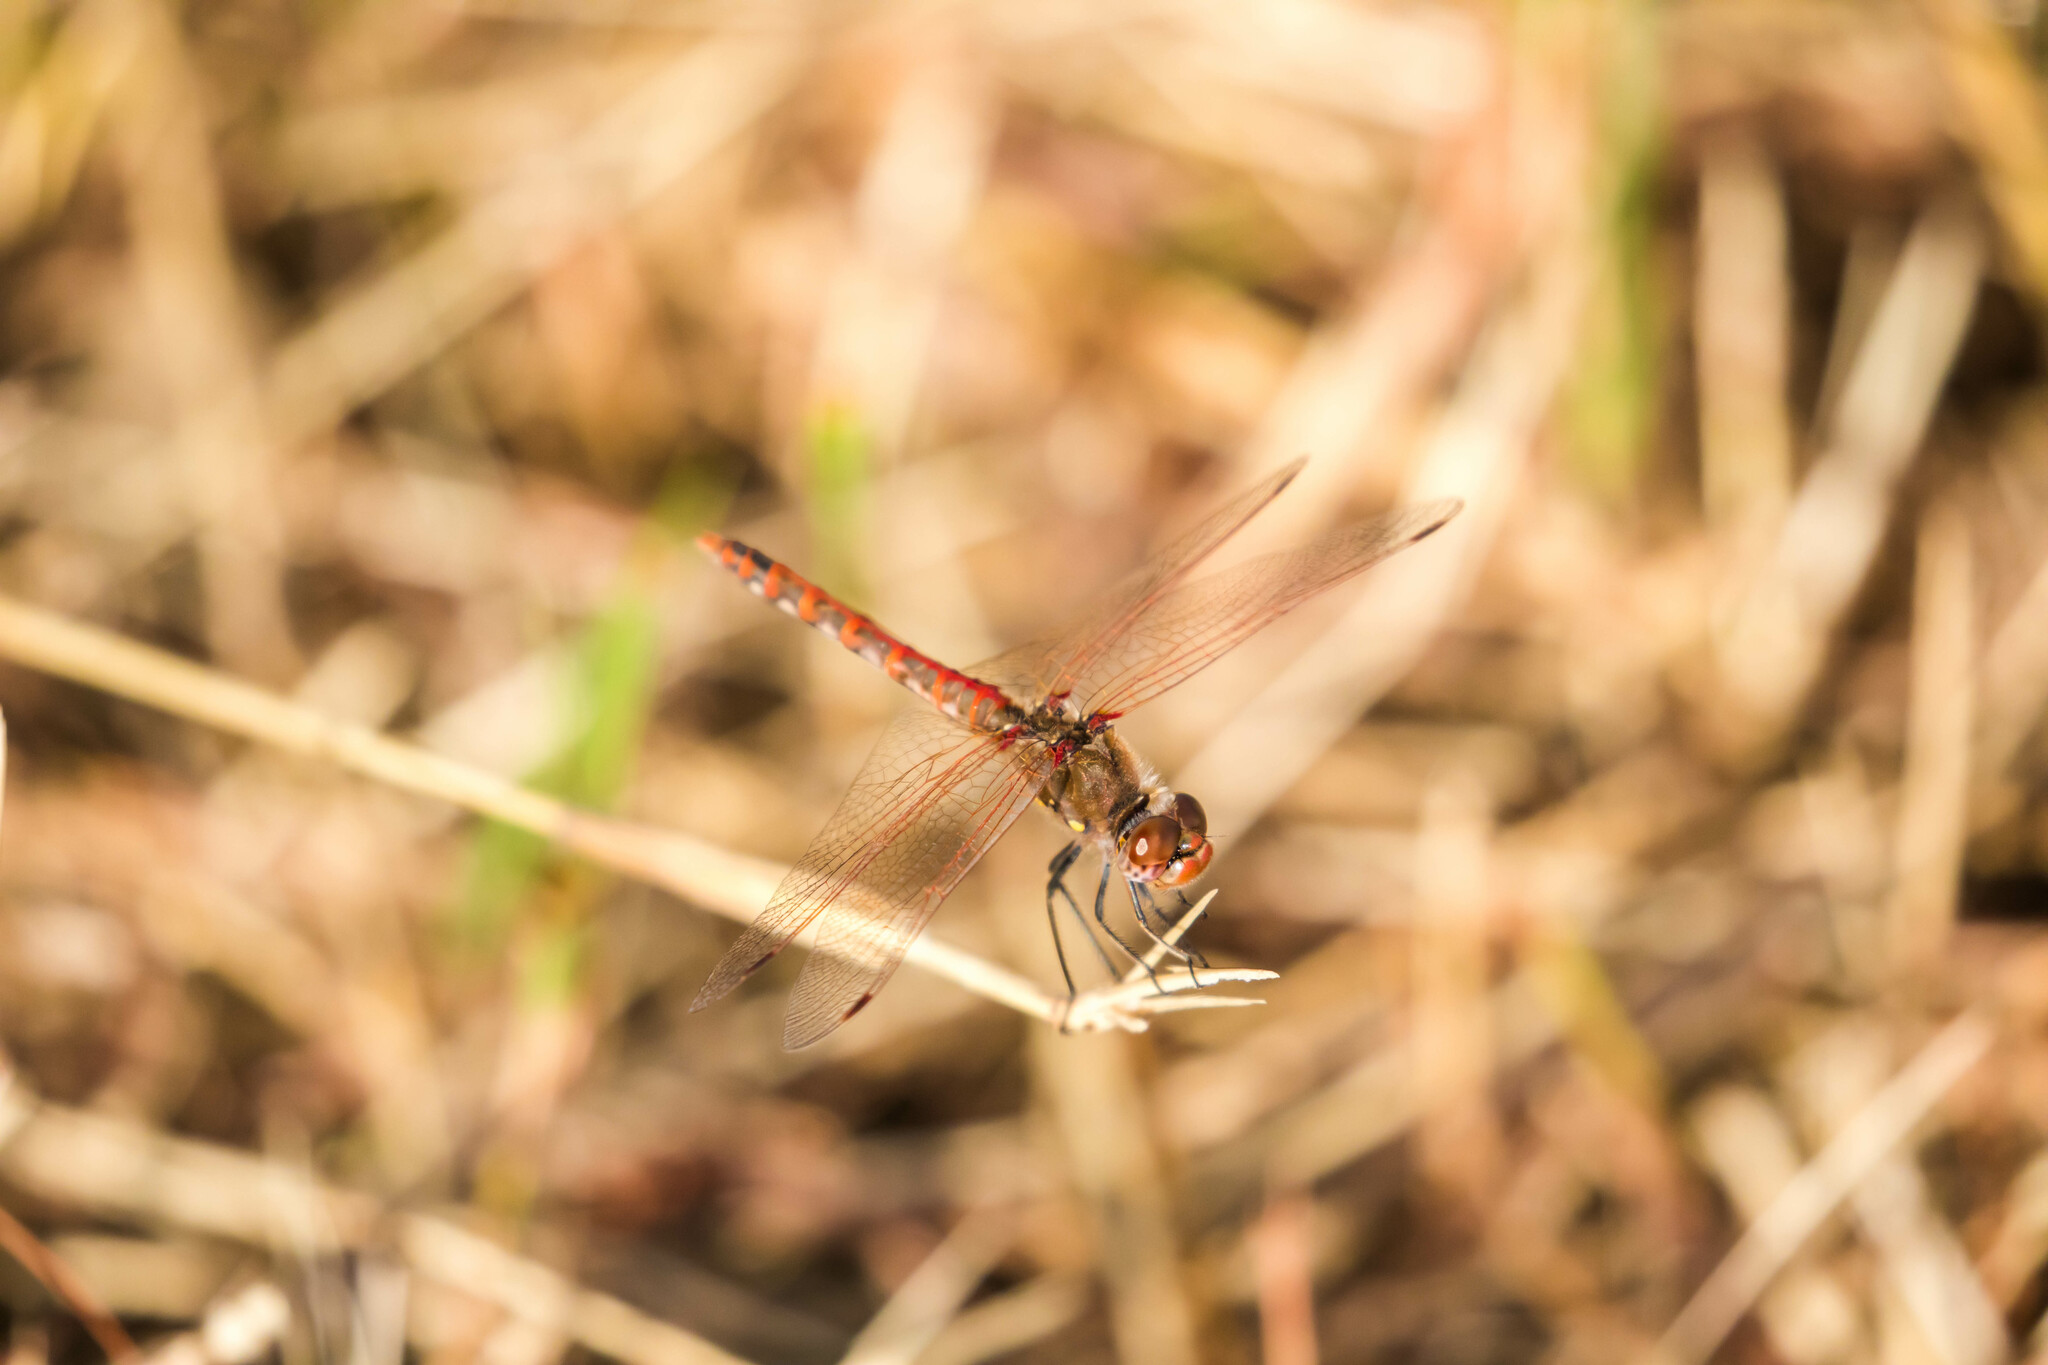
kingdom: Animalia
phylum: Arthropoda
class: Insecta
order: Odonata
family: Libellulidae
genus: Sympetrum
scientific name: Sympetrum corruptum
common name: Variegated meadowhawk
